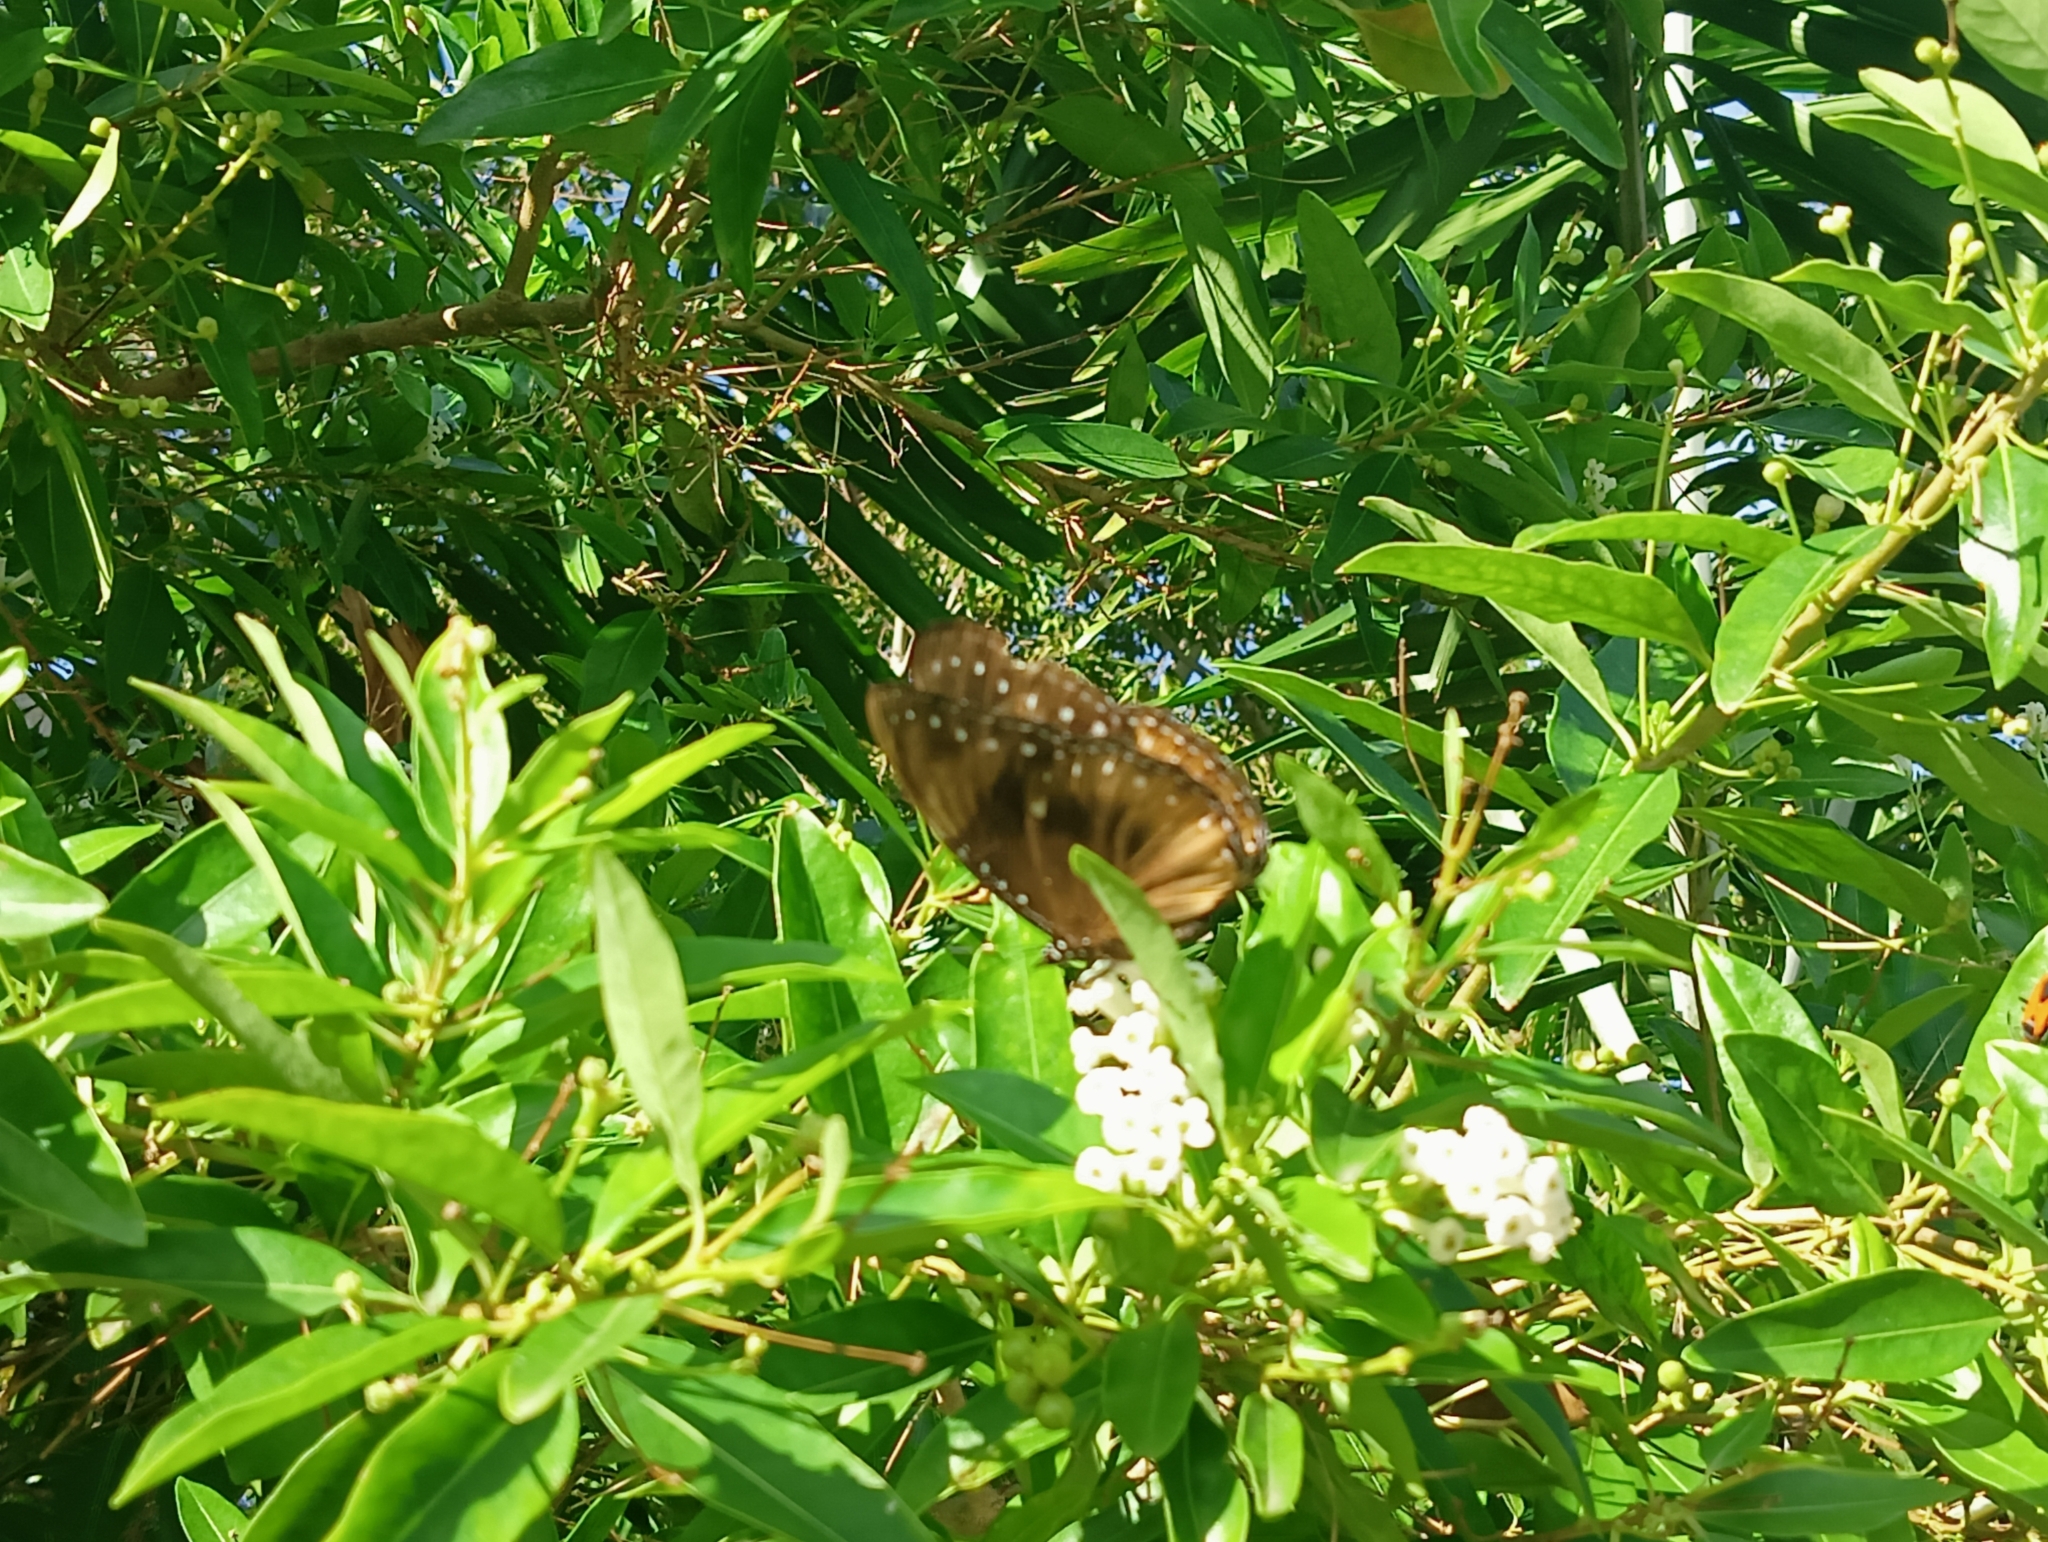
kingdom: Animalia
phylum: Arthropoda
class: Insecta
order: Lepidoptera
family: Nymphalidae
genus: Hypolimnas
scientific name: Hypolimnas antilope
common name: Spotted crow eggfly
